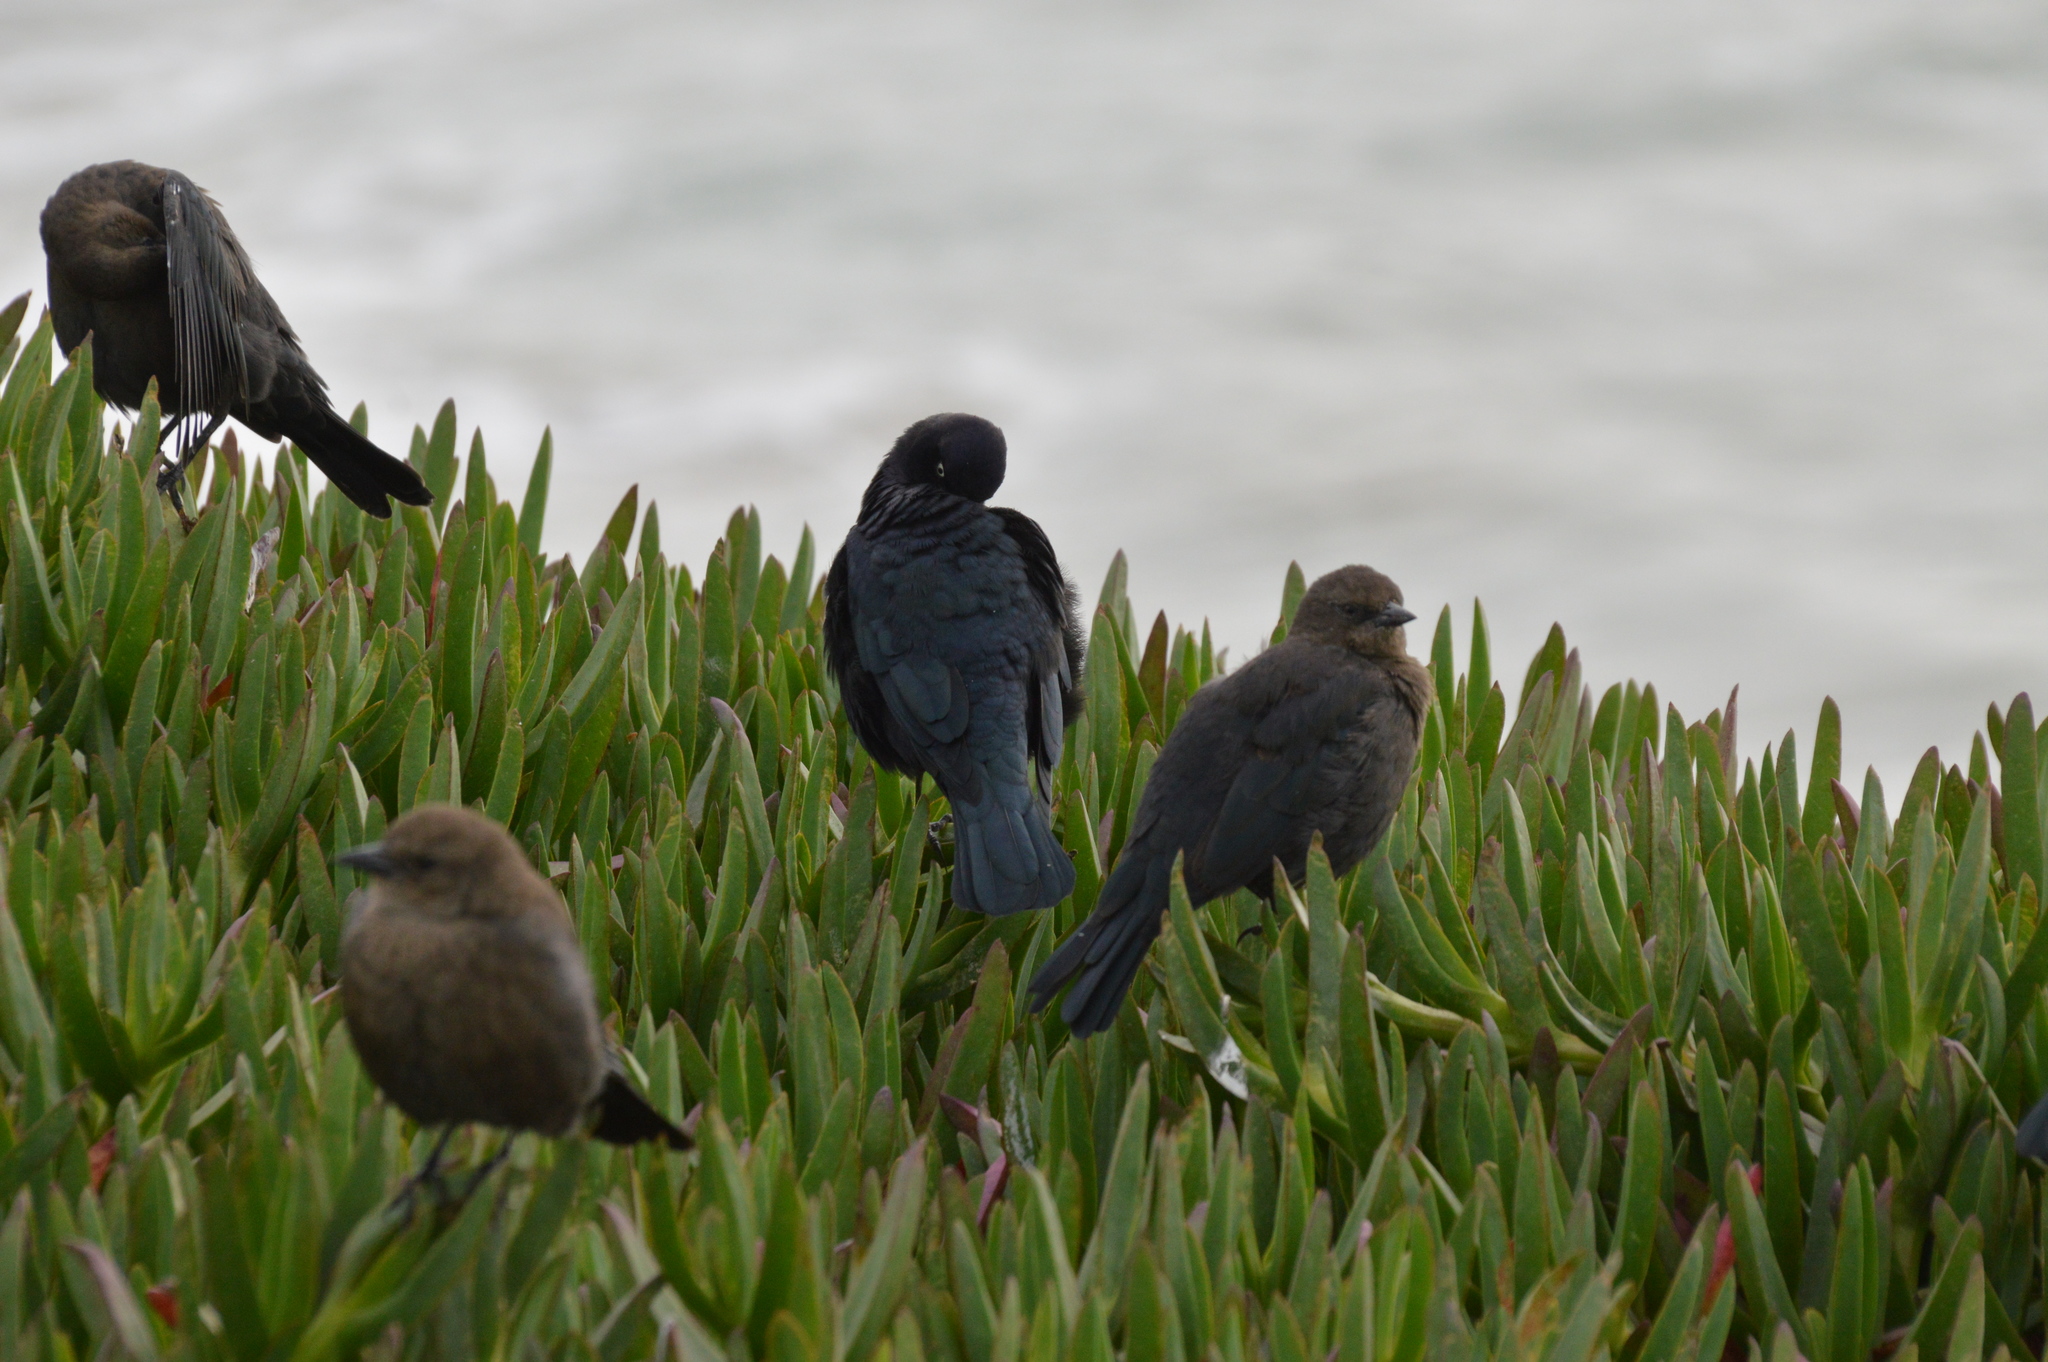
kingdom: Animalia
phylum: Chordata
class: Aves
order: Passeriformes
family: Icteridae
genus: Euphagus
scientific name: Euphagus cyanocephalus
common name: Brewer's blackbird
